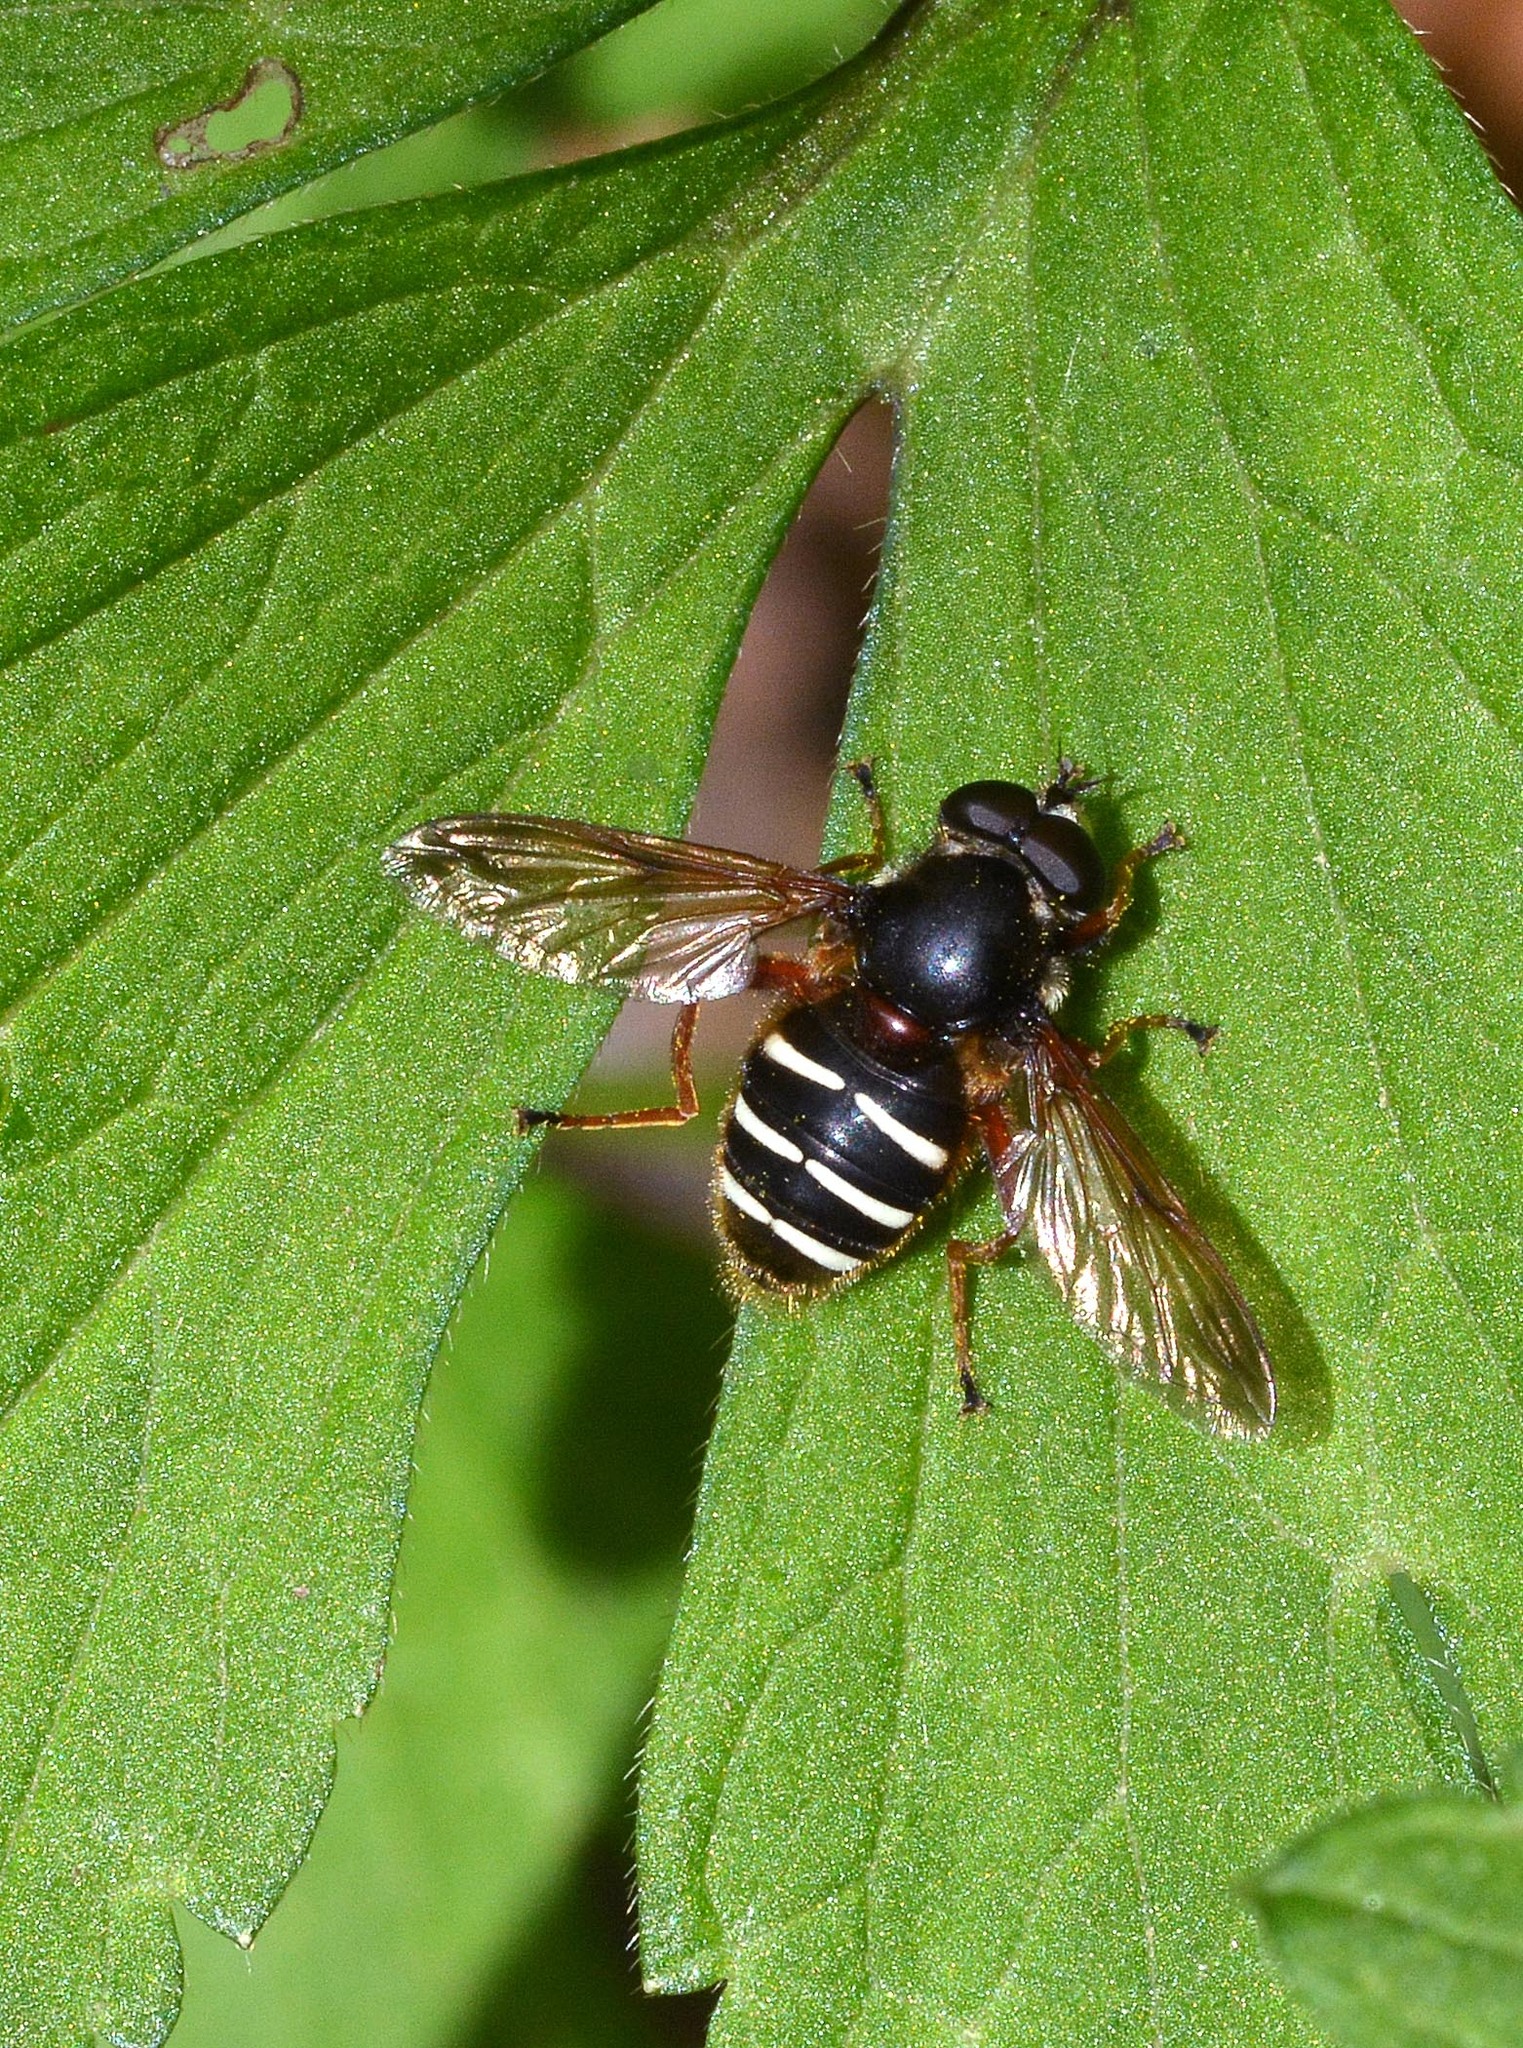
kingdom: Animalia
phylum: Arthropoda
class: Insecta
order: Diptera
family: Syrphidae
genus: Sericomyia
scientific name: Sericomyia lappona
